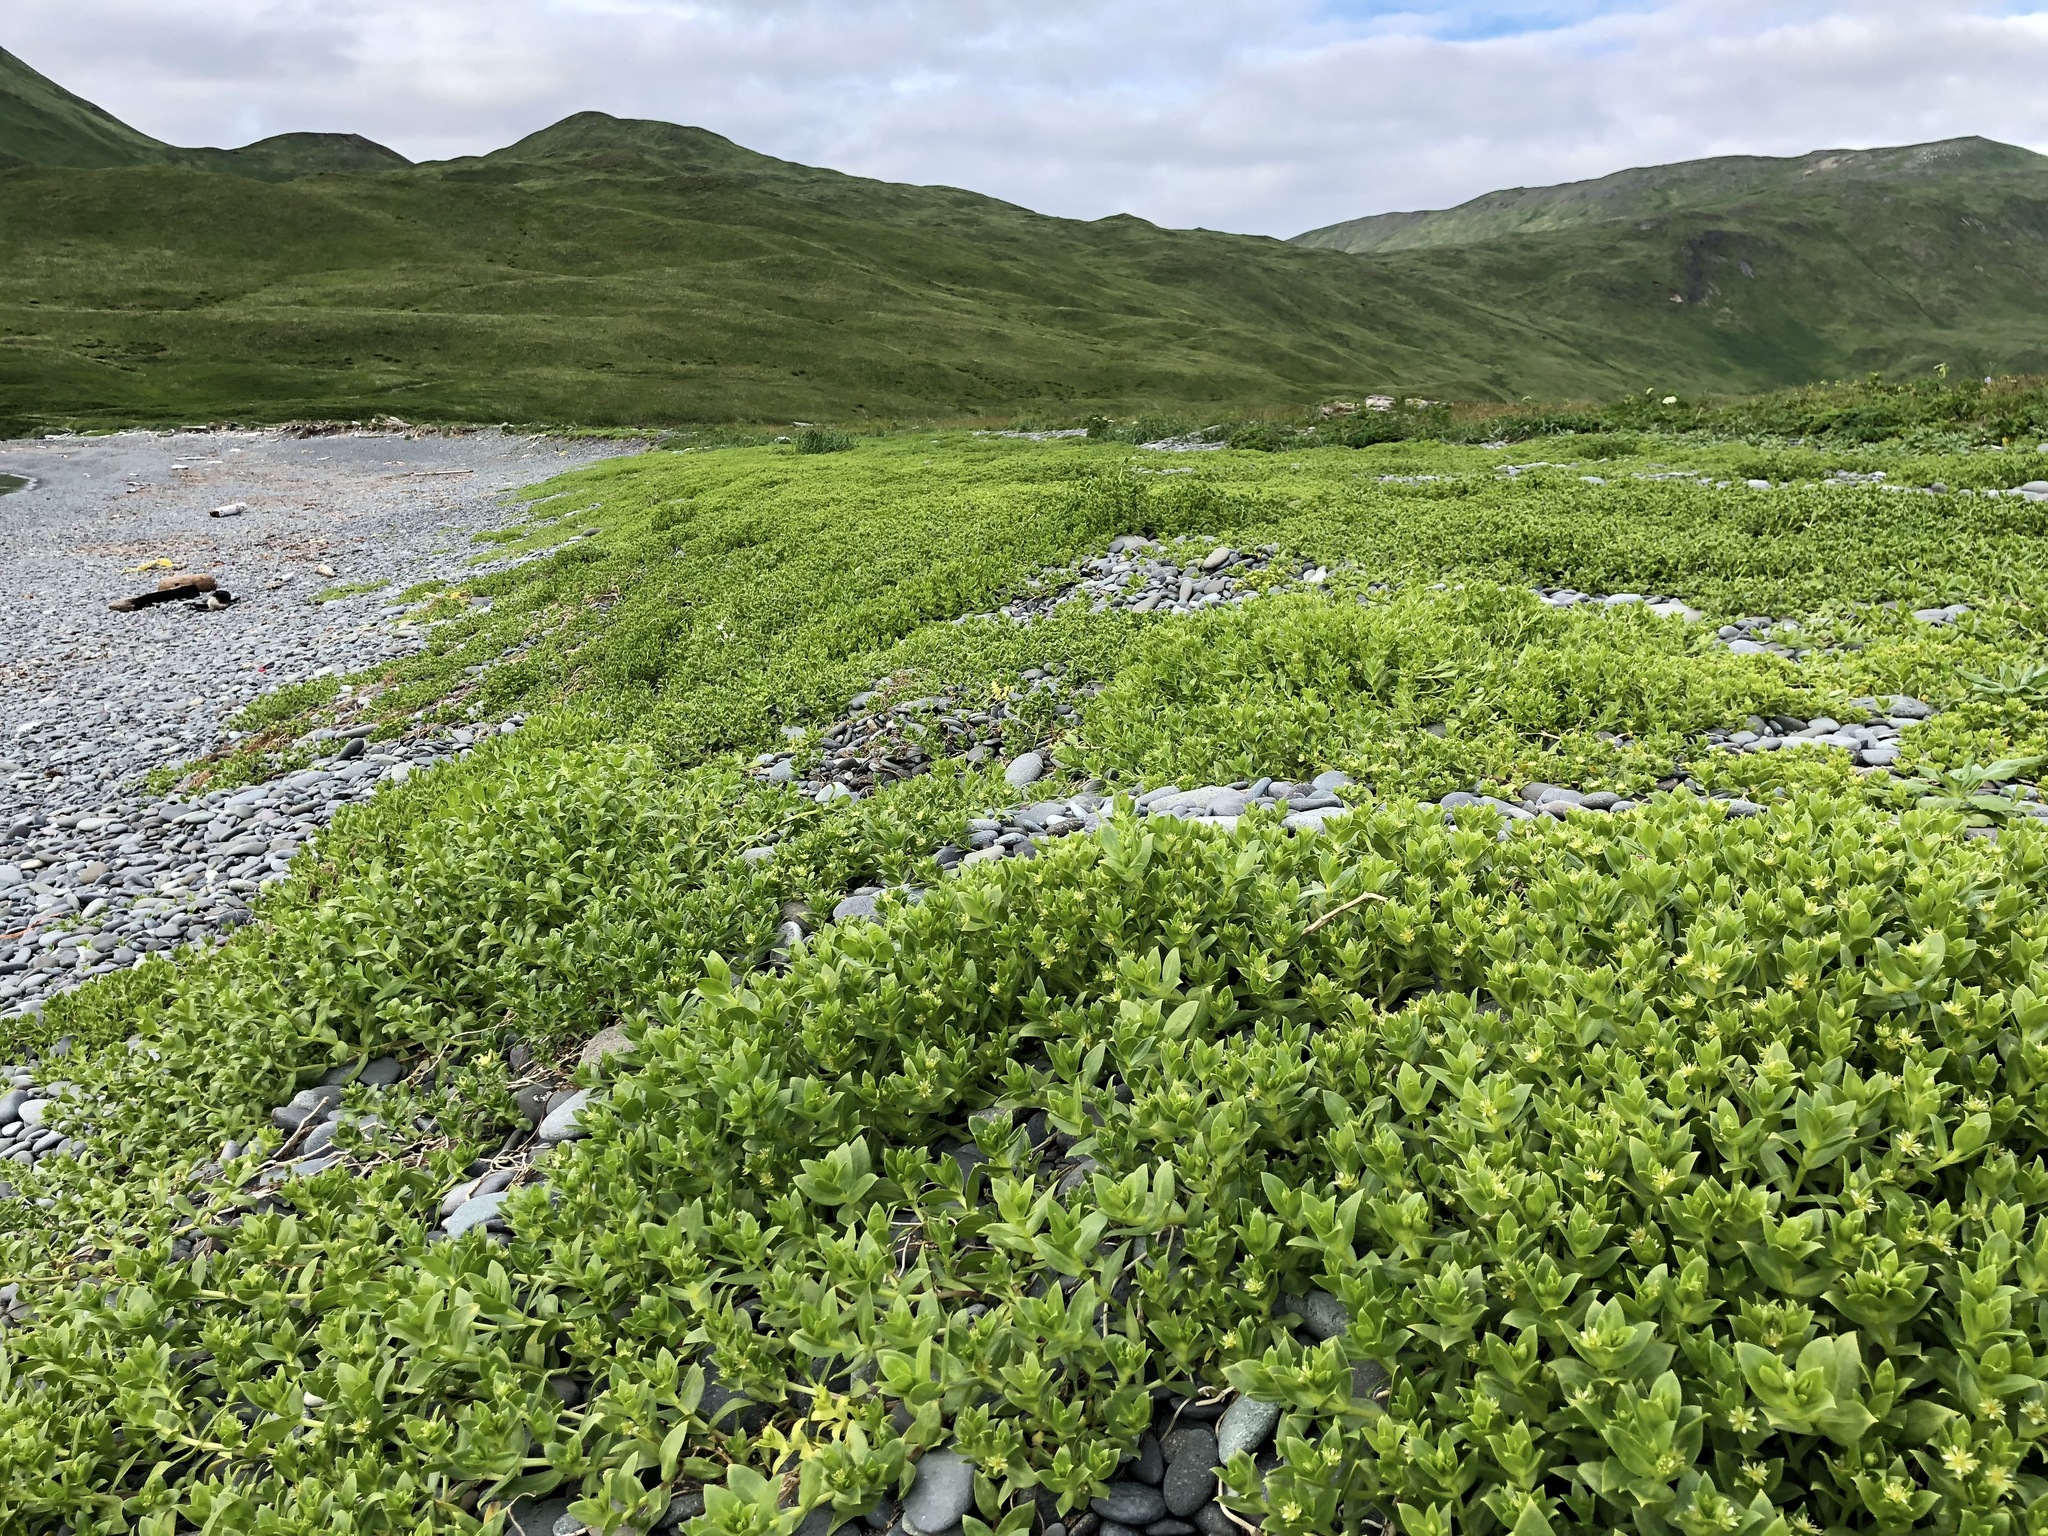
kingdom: Plantae
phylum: Tracheophyta
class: Magnoliopsida
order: Caryophyllales
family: Caryophyllaceae
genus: Honckenya
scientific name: Honckenya peploides
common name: Sea sandwort
